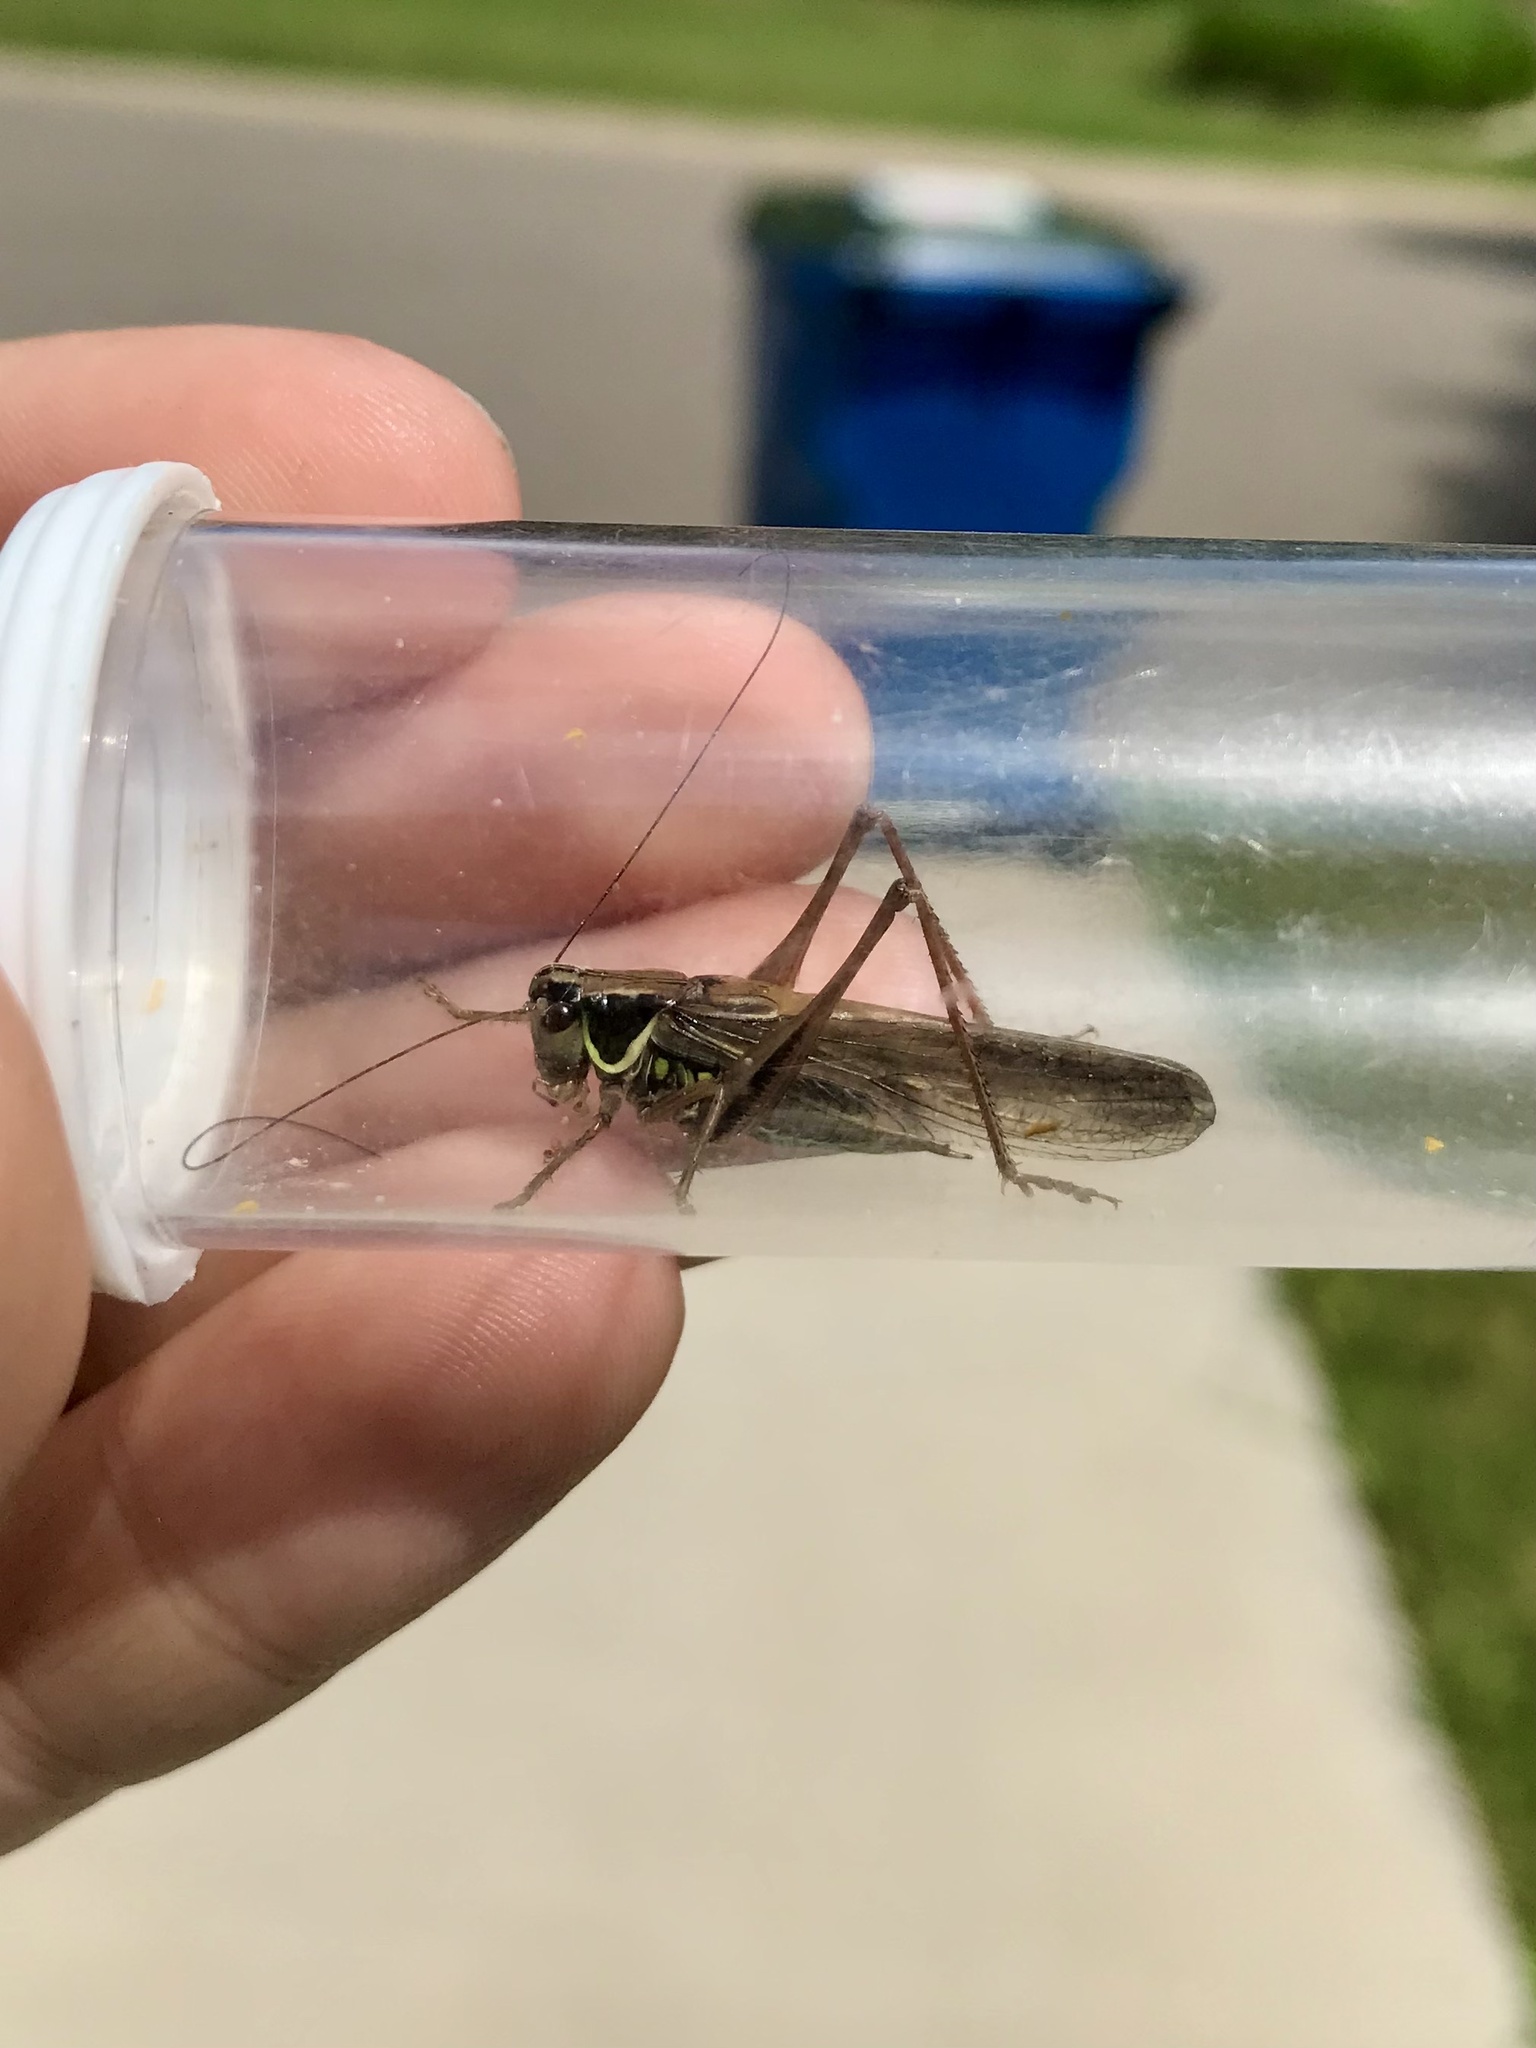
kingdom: Animalia
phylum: Arthropoda
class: Insecta
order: Orthoptera
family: Tettigoniidae
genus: Roeseliana
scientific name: Roeseliana roeselii
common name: Roesel's bush cricket
